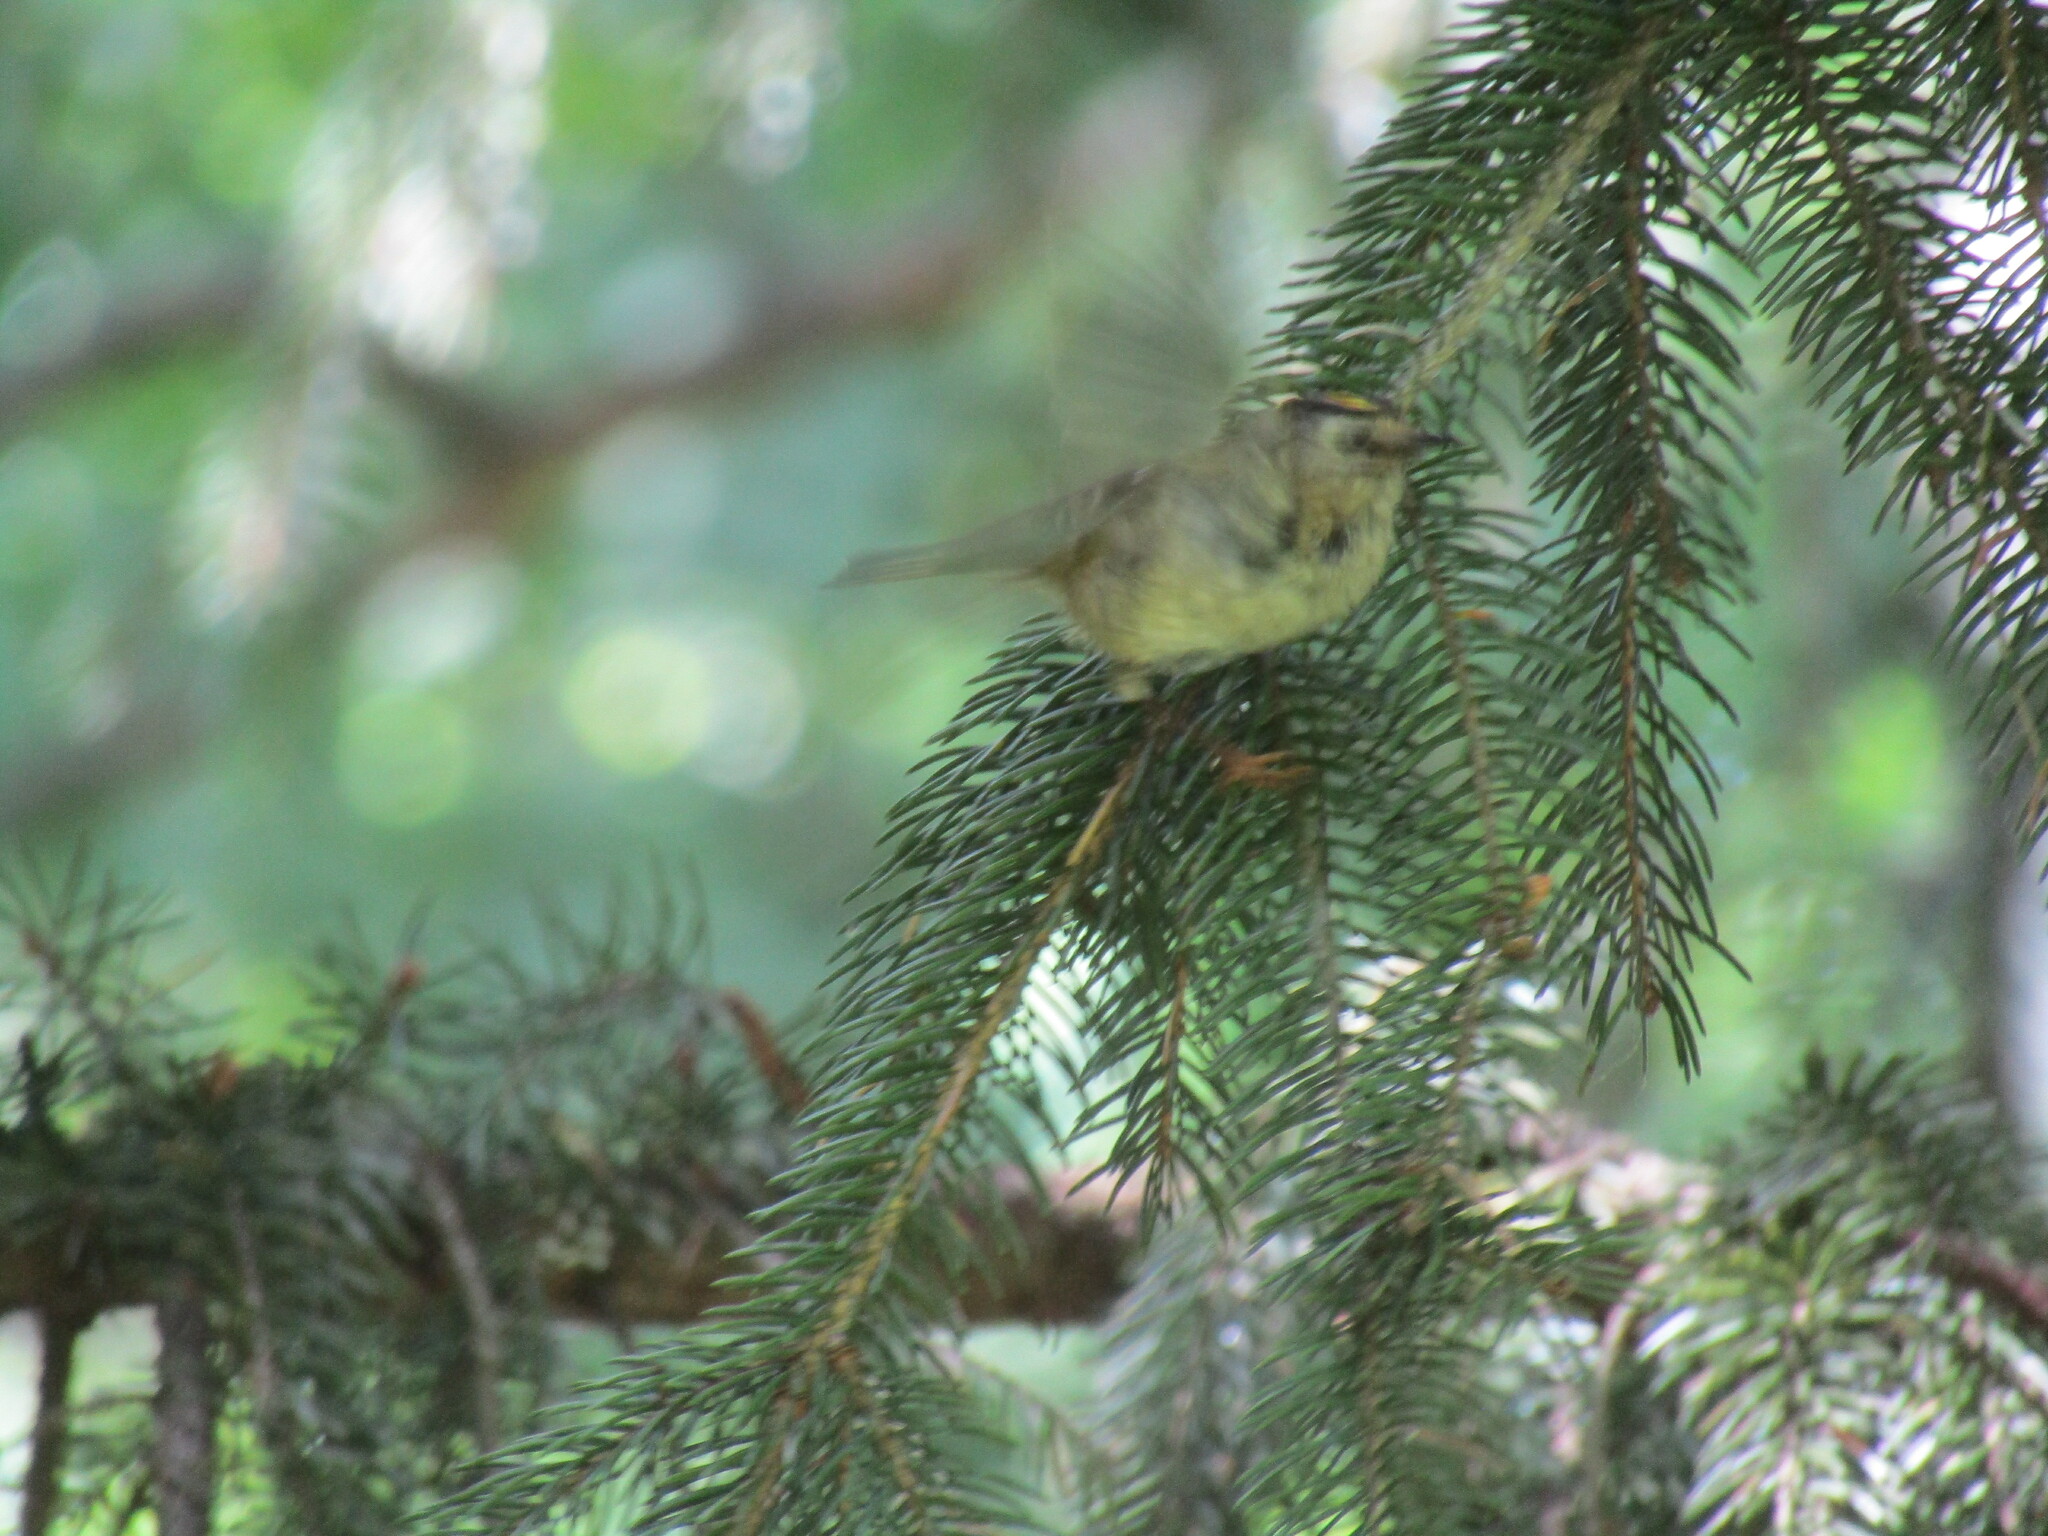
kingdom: Animalia
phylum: Chordata
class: Aves
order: Passeriformes
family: Regulidae
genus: Regulus
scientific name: Regulus regulus
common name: Goldcrest
